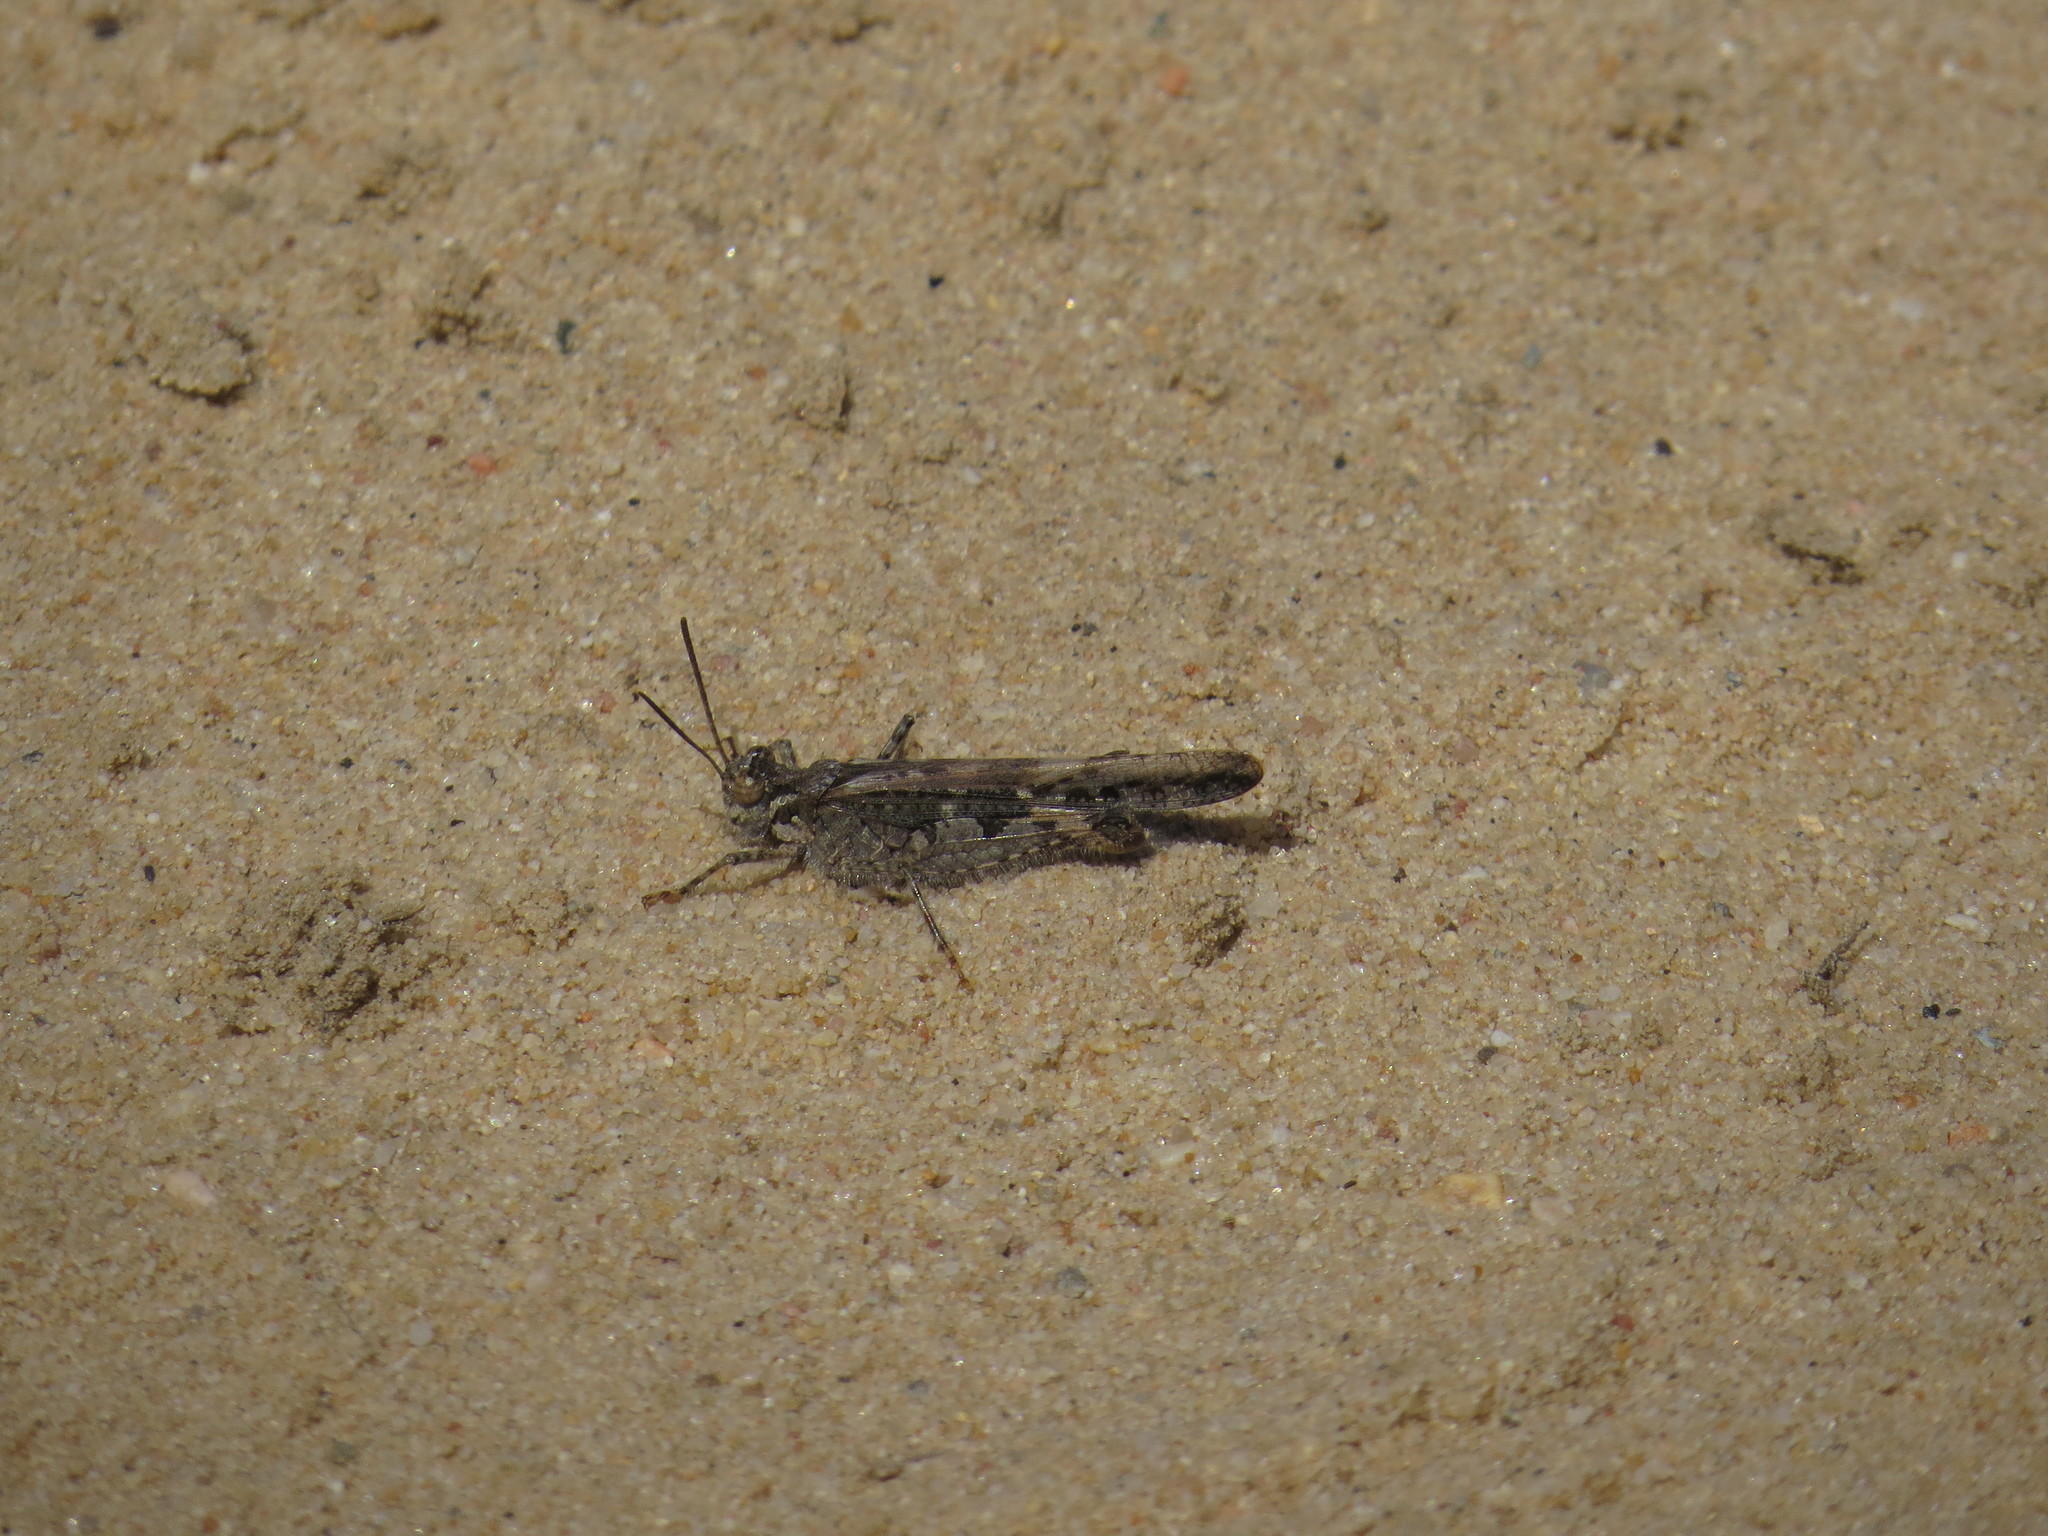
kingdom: Animalia
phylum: Arthropoda
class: Insecta
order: Orthoptera
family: Acrididae
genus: Acrotylus
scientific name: Acrotylus patruelis
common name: Slender burrowing grasshopper
